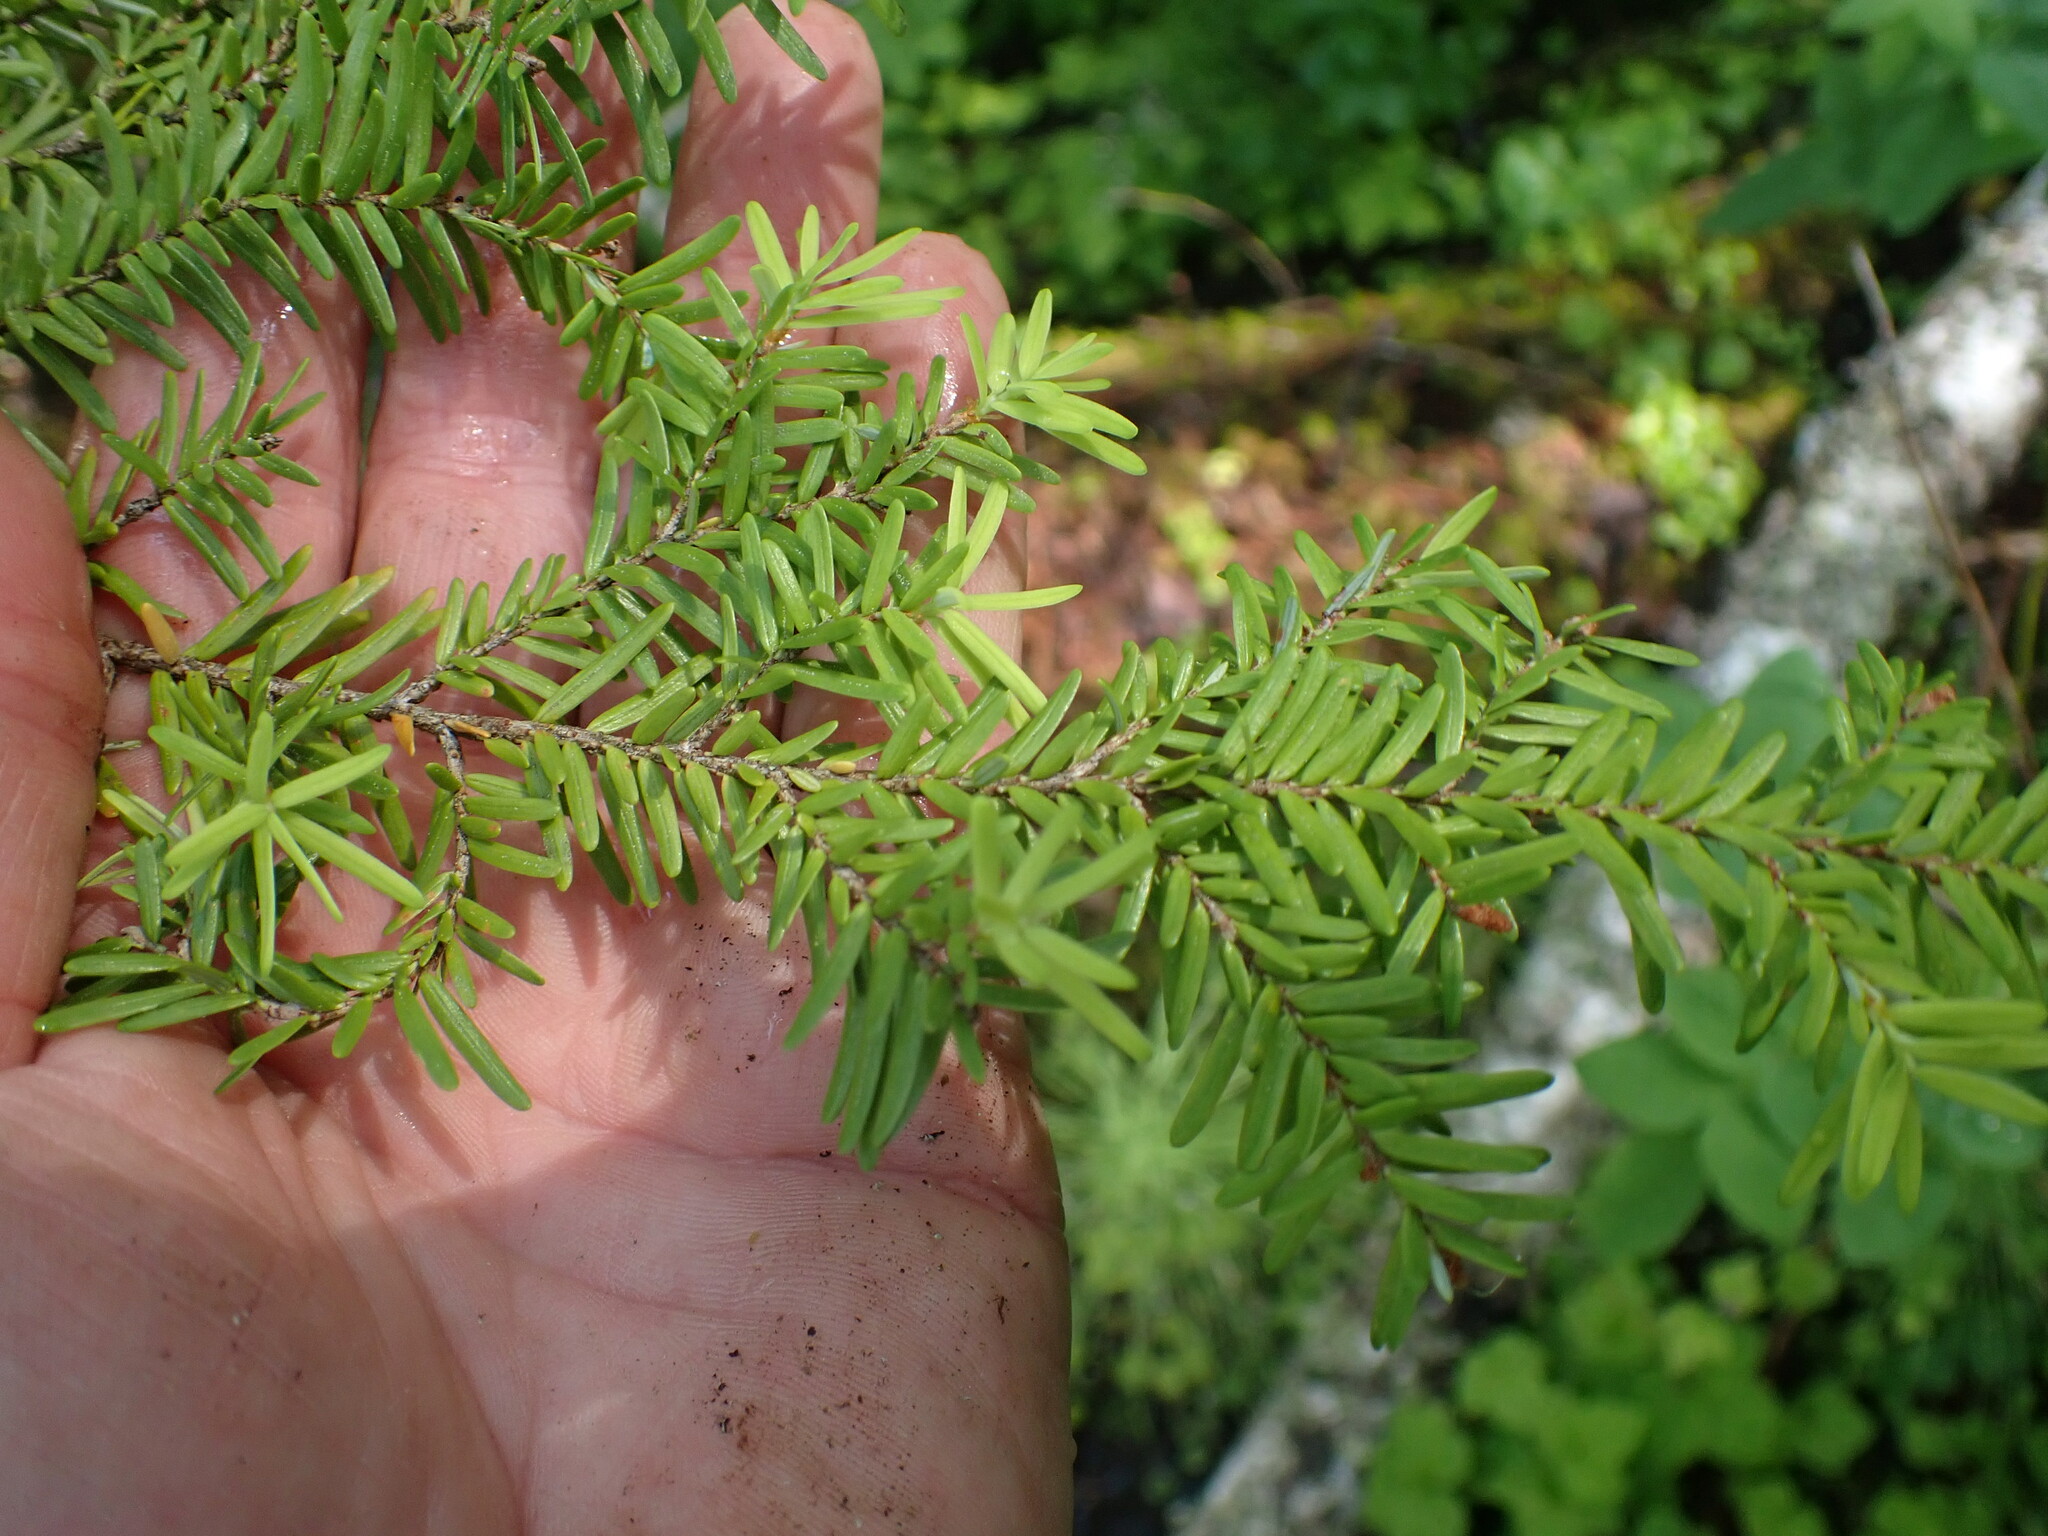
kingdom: Plantae
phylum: Tracheophyta
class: Pinopsida
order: Pinales
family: Pinaceae
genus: Tsuga
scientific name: Tsuga heterophylla
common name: Western hemlock
